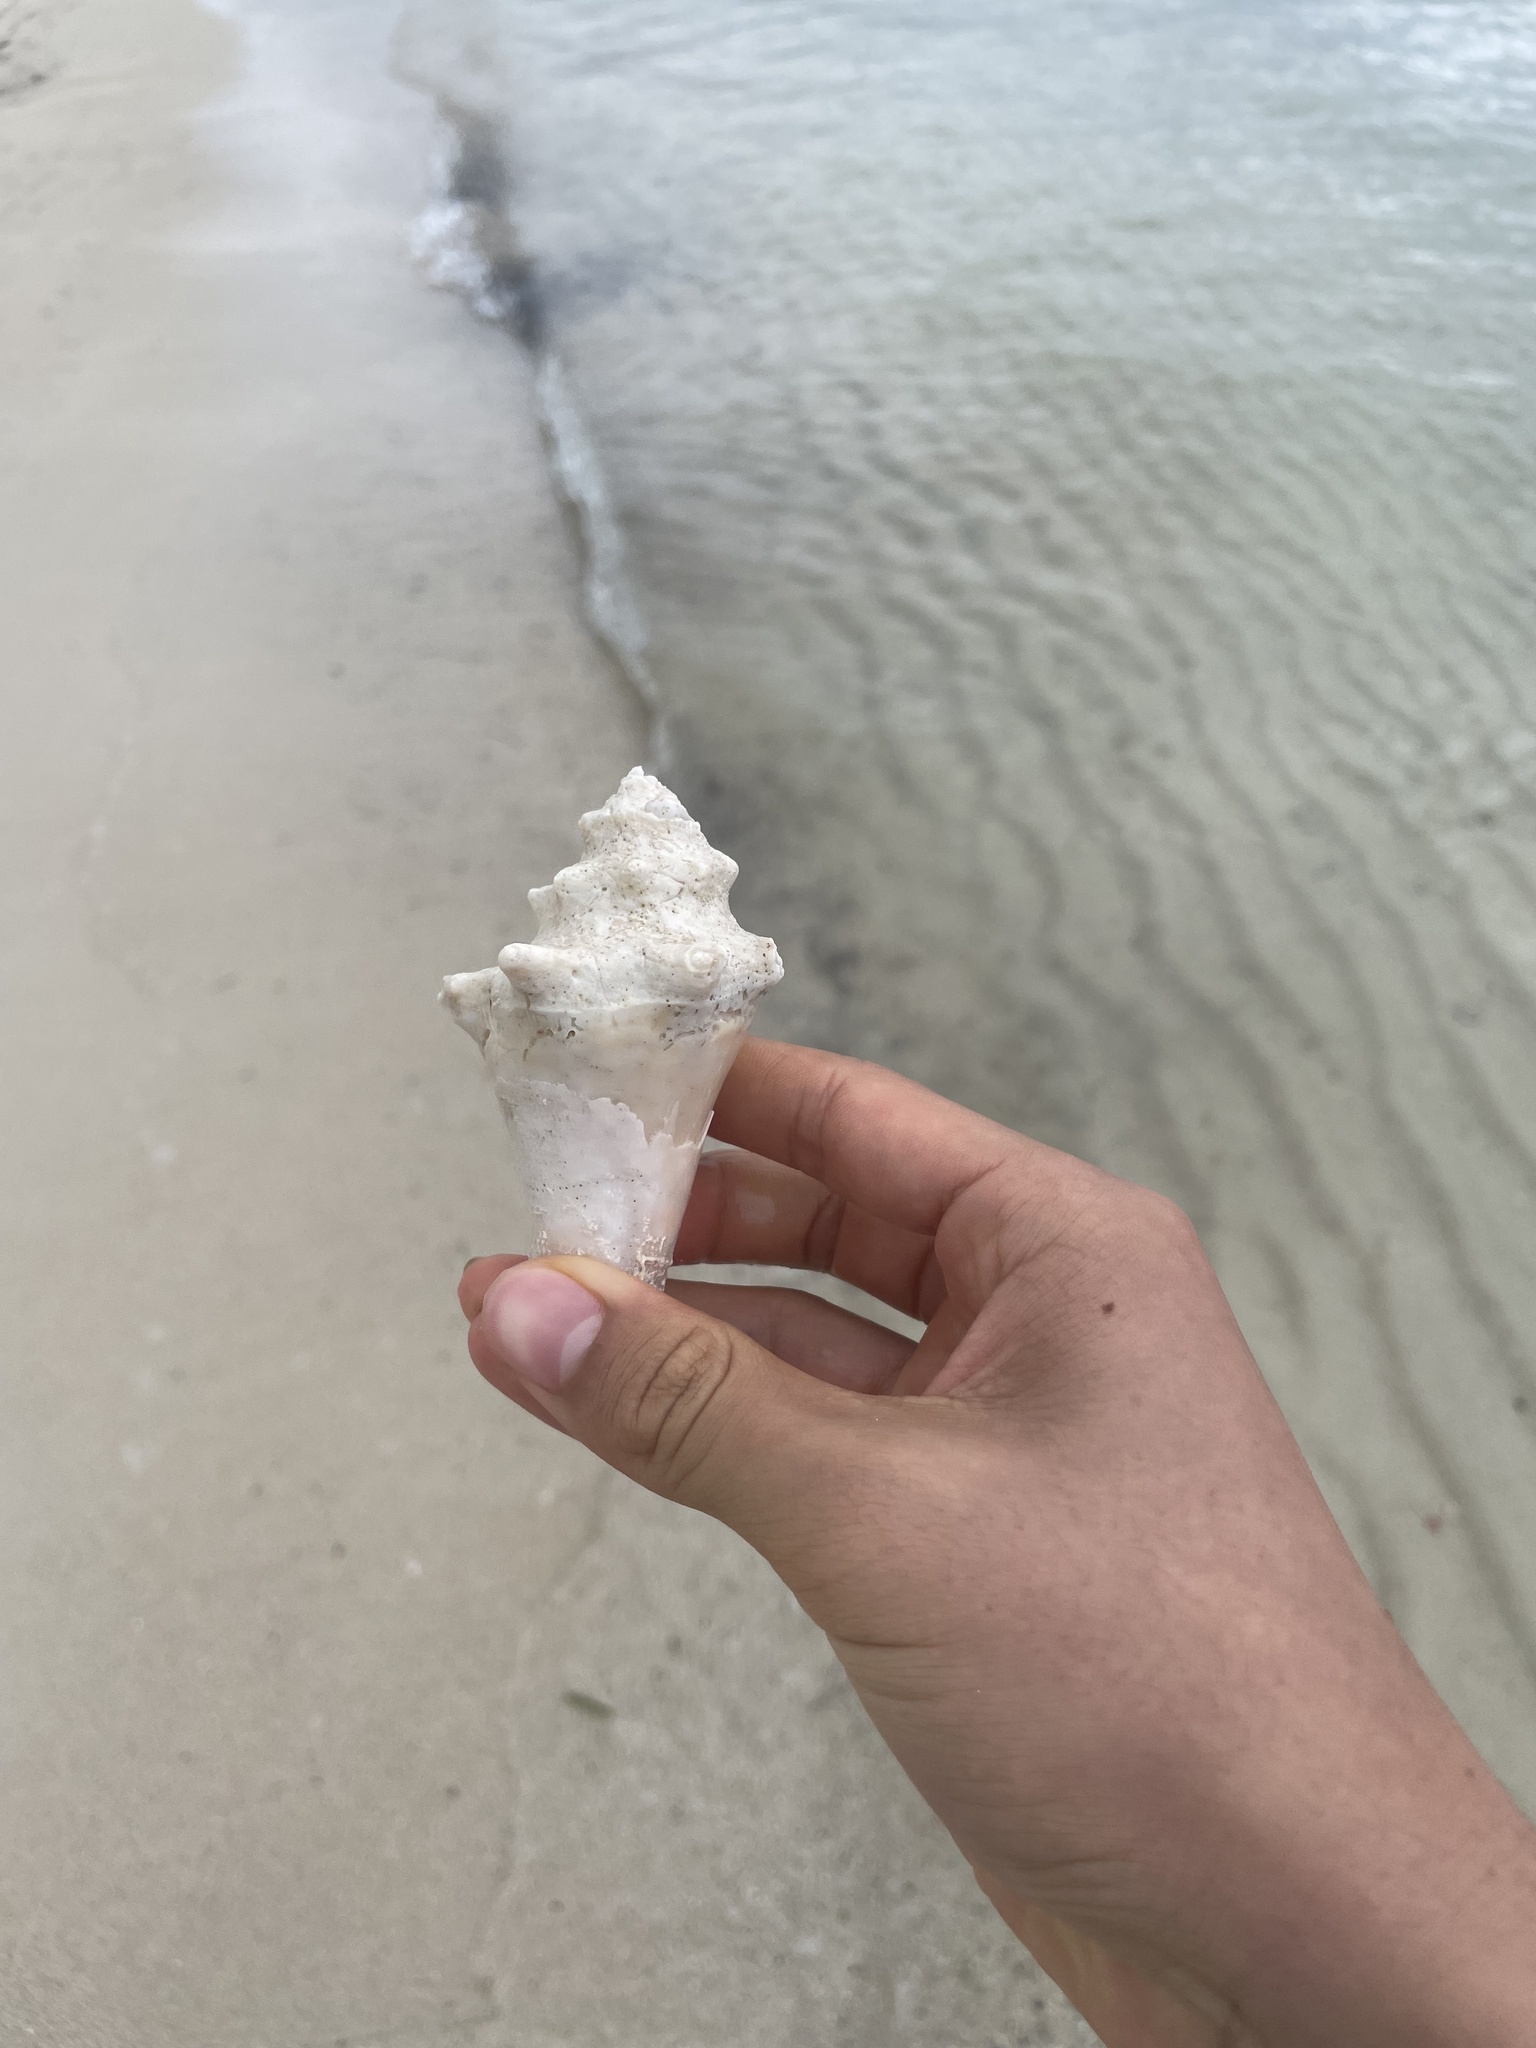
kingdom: Animalia
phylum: Mollusca
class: Gastropoda
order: Littorinimorpha
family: Strombidae
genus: Aliger
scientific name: Aliger gigas
